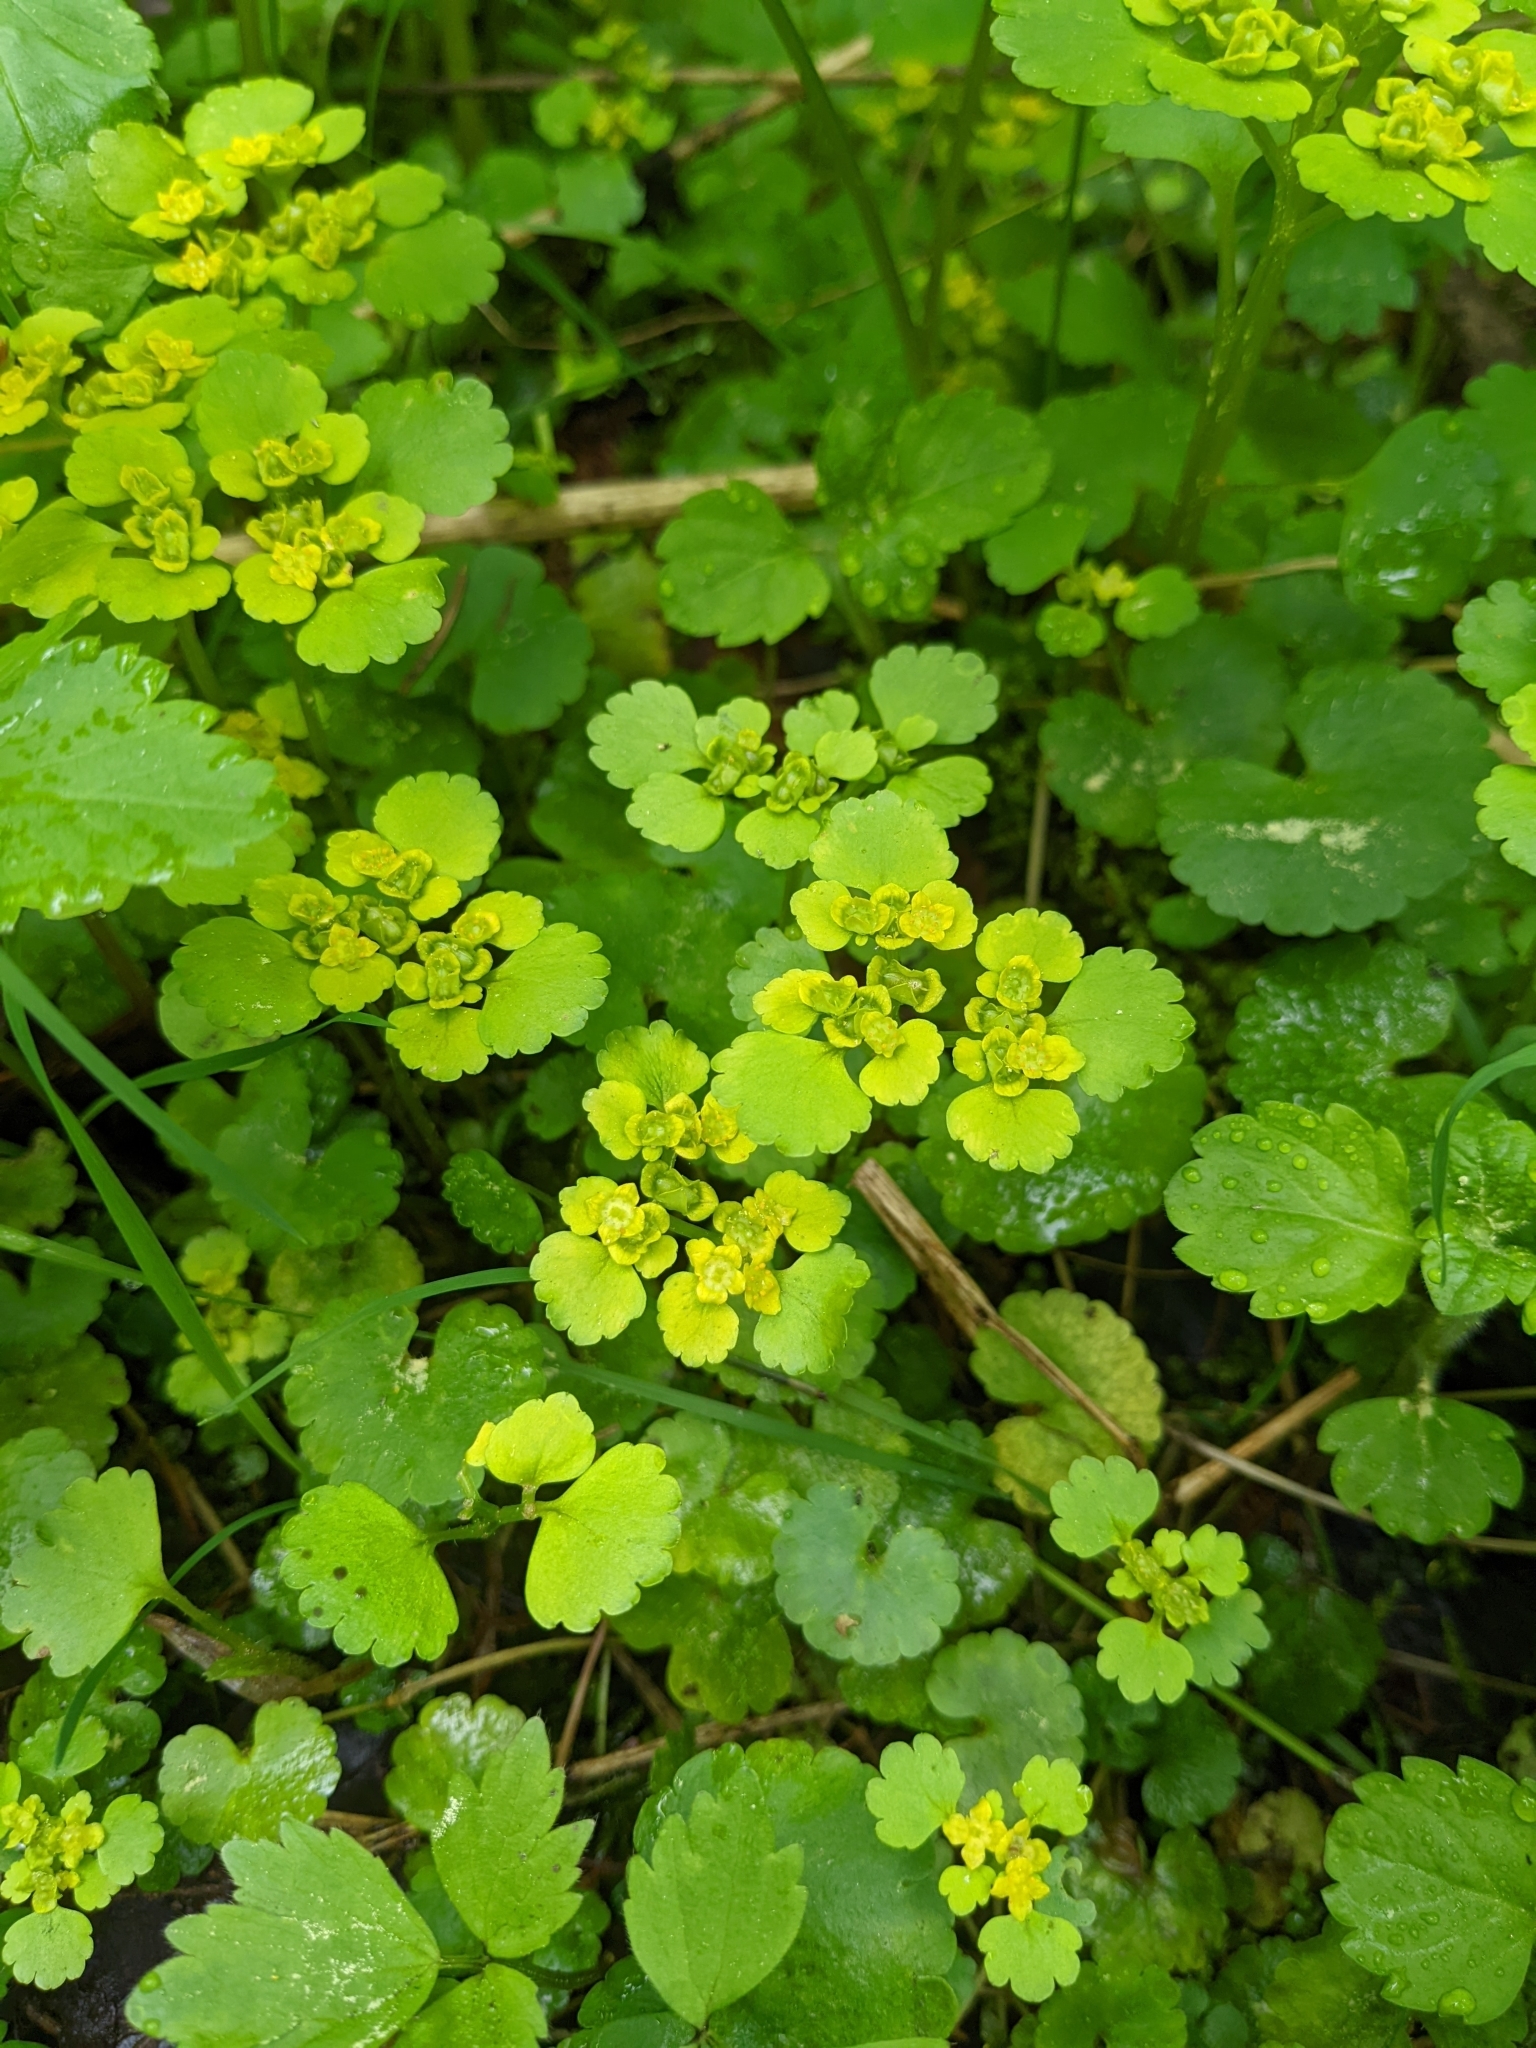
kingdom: Plantae
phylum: Tracheophyta
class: Magnoliopsida
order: Saxifragales
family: Saxifragaceae
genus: Chrysosplenium
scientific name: Chrysosplenium alternifolium
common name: Alternate-leaved golden-saxifrage
